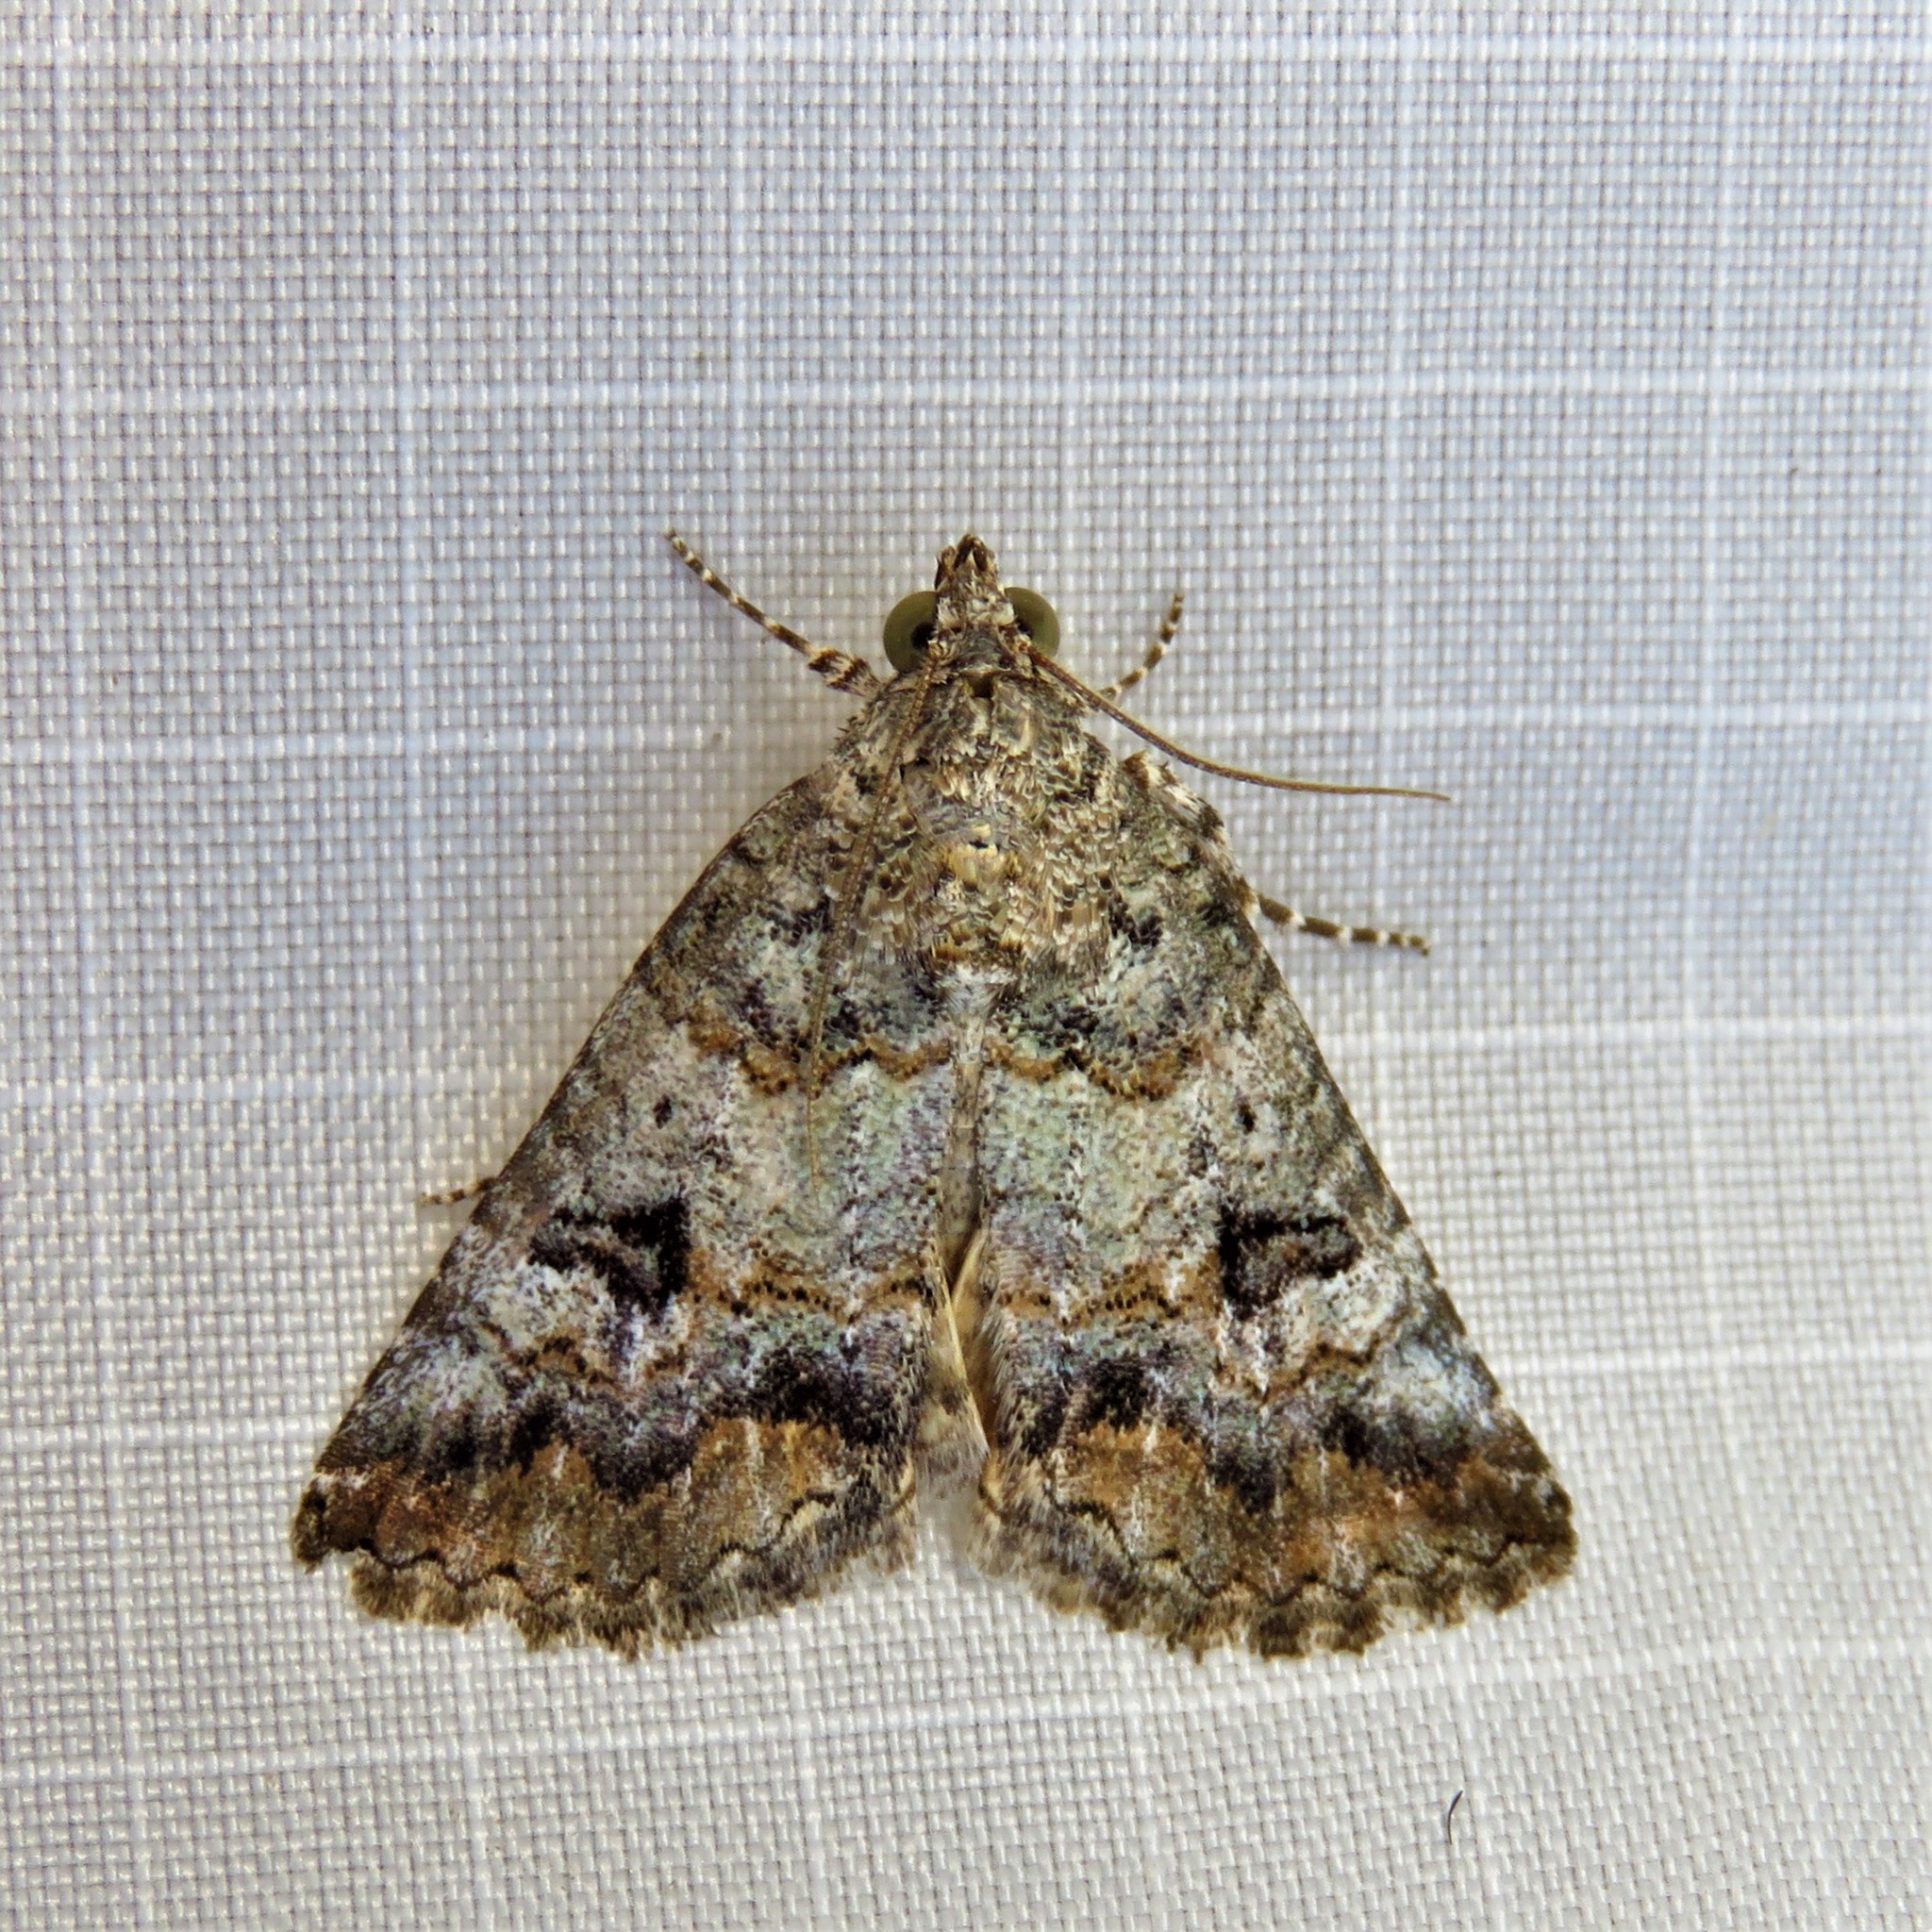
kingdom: Animalia
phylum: Arthropoda
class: Insecta
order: Lepidoptera
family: Erebidae
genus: Eubolina
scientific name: Eubolina impartialis
